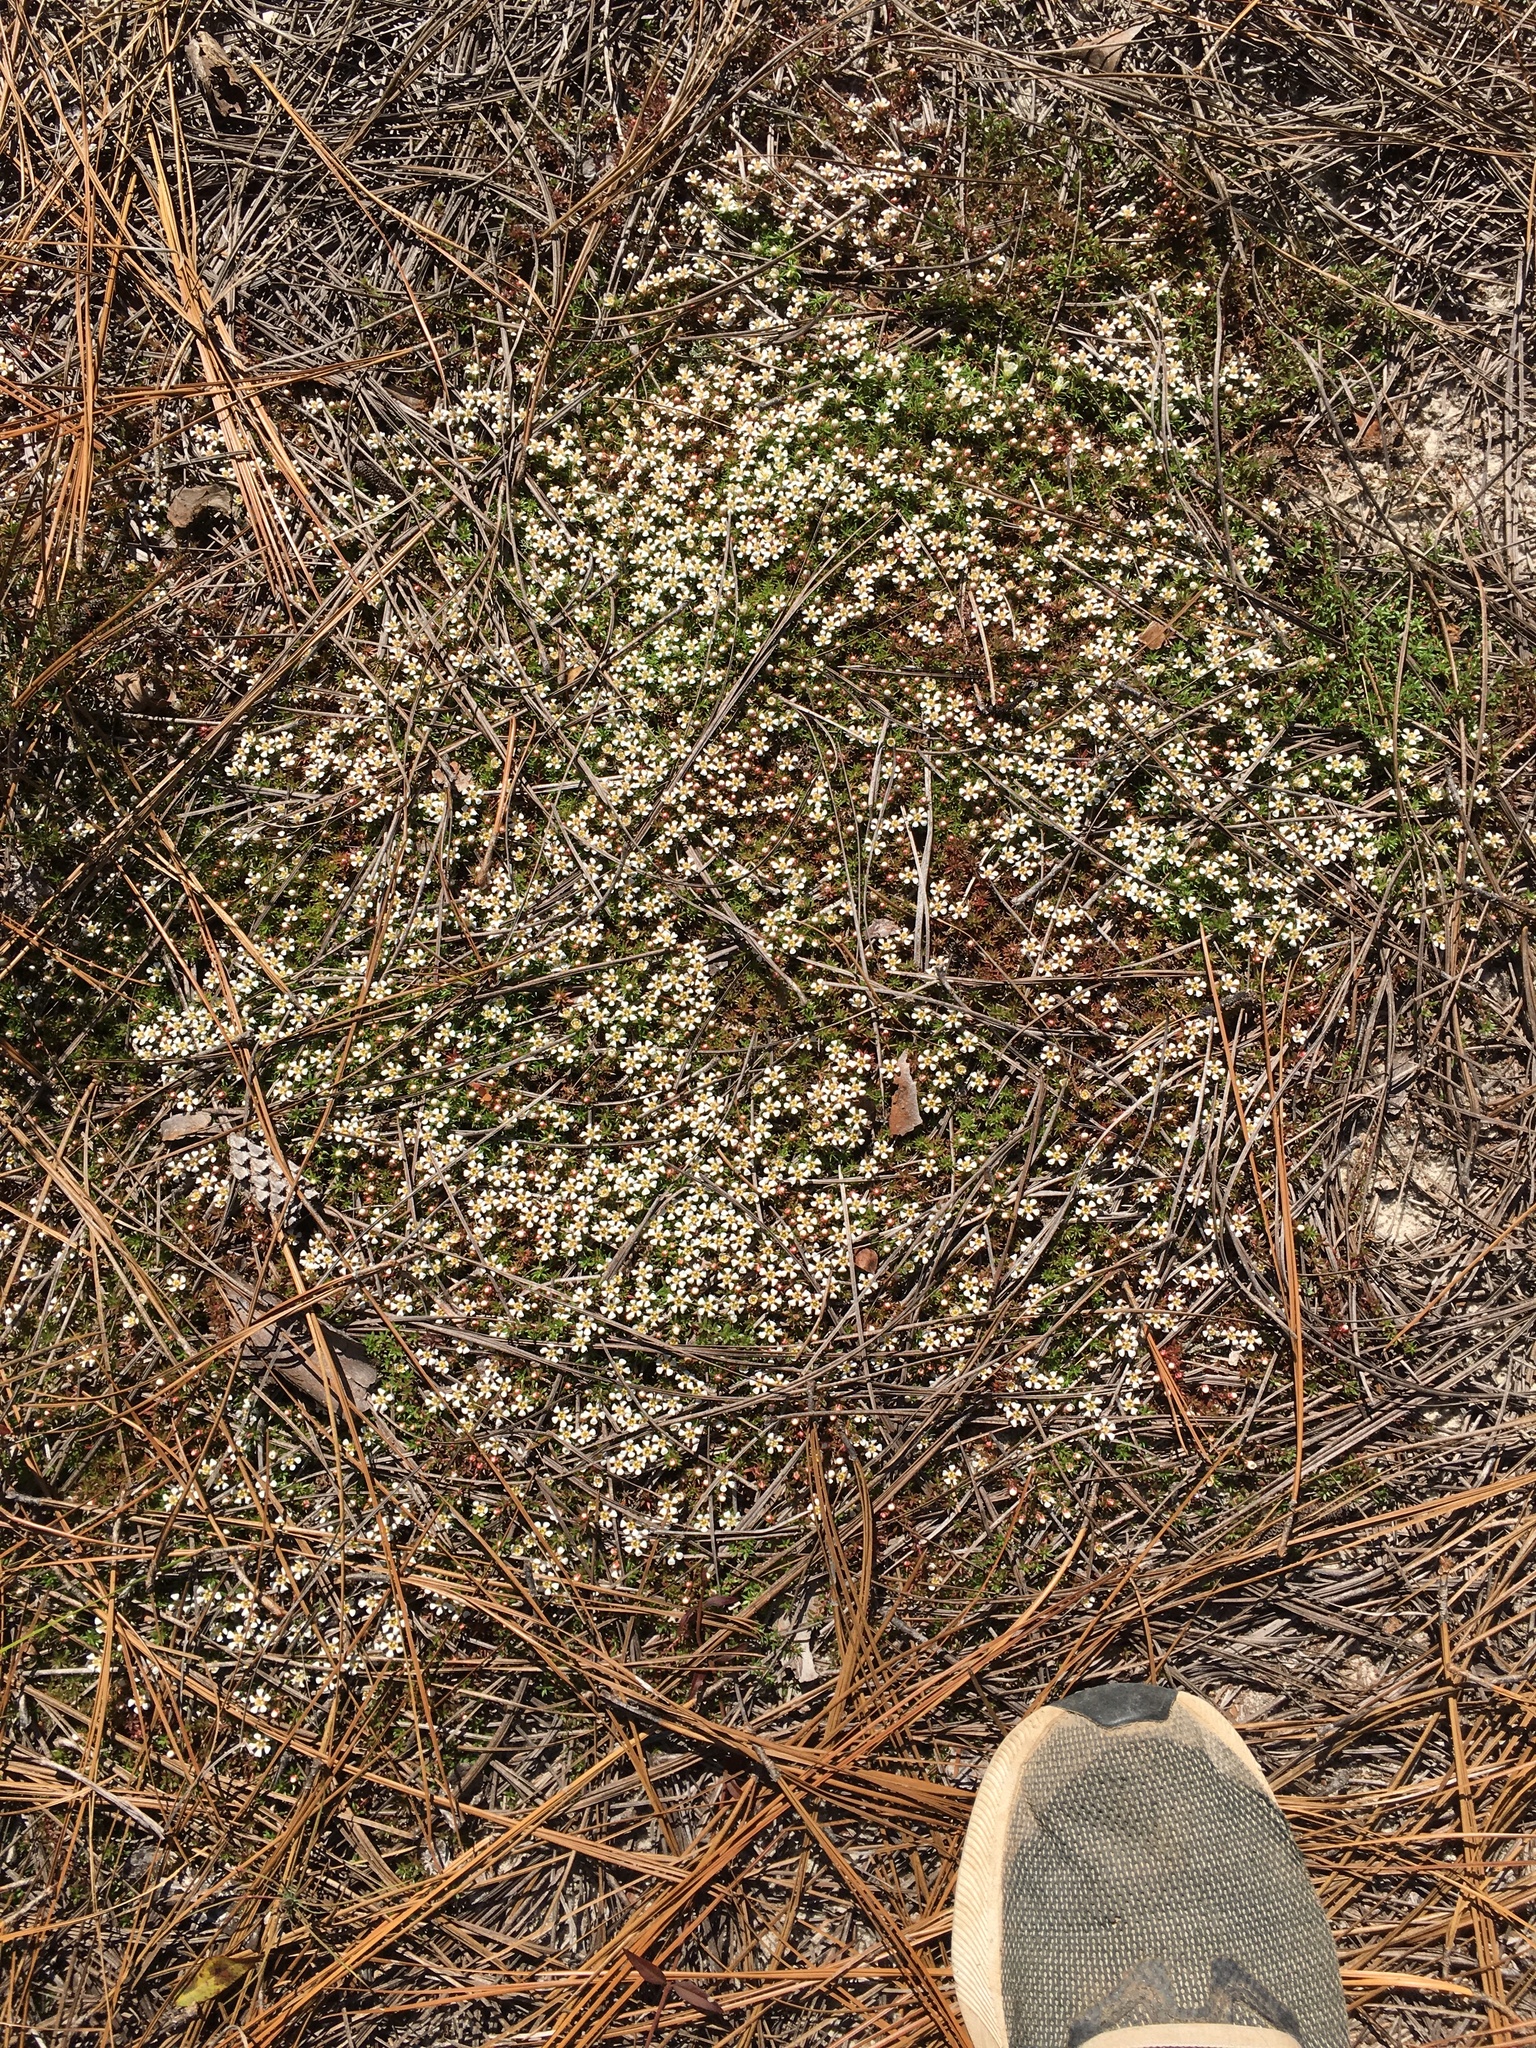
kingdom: Plantae
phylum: Tracheophyta
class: Magnoliopsida
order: Ericales
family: Diapensiaceae
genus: Pyxidanthera
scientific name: Pyxidanthera brevifolia
